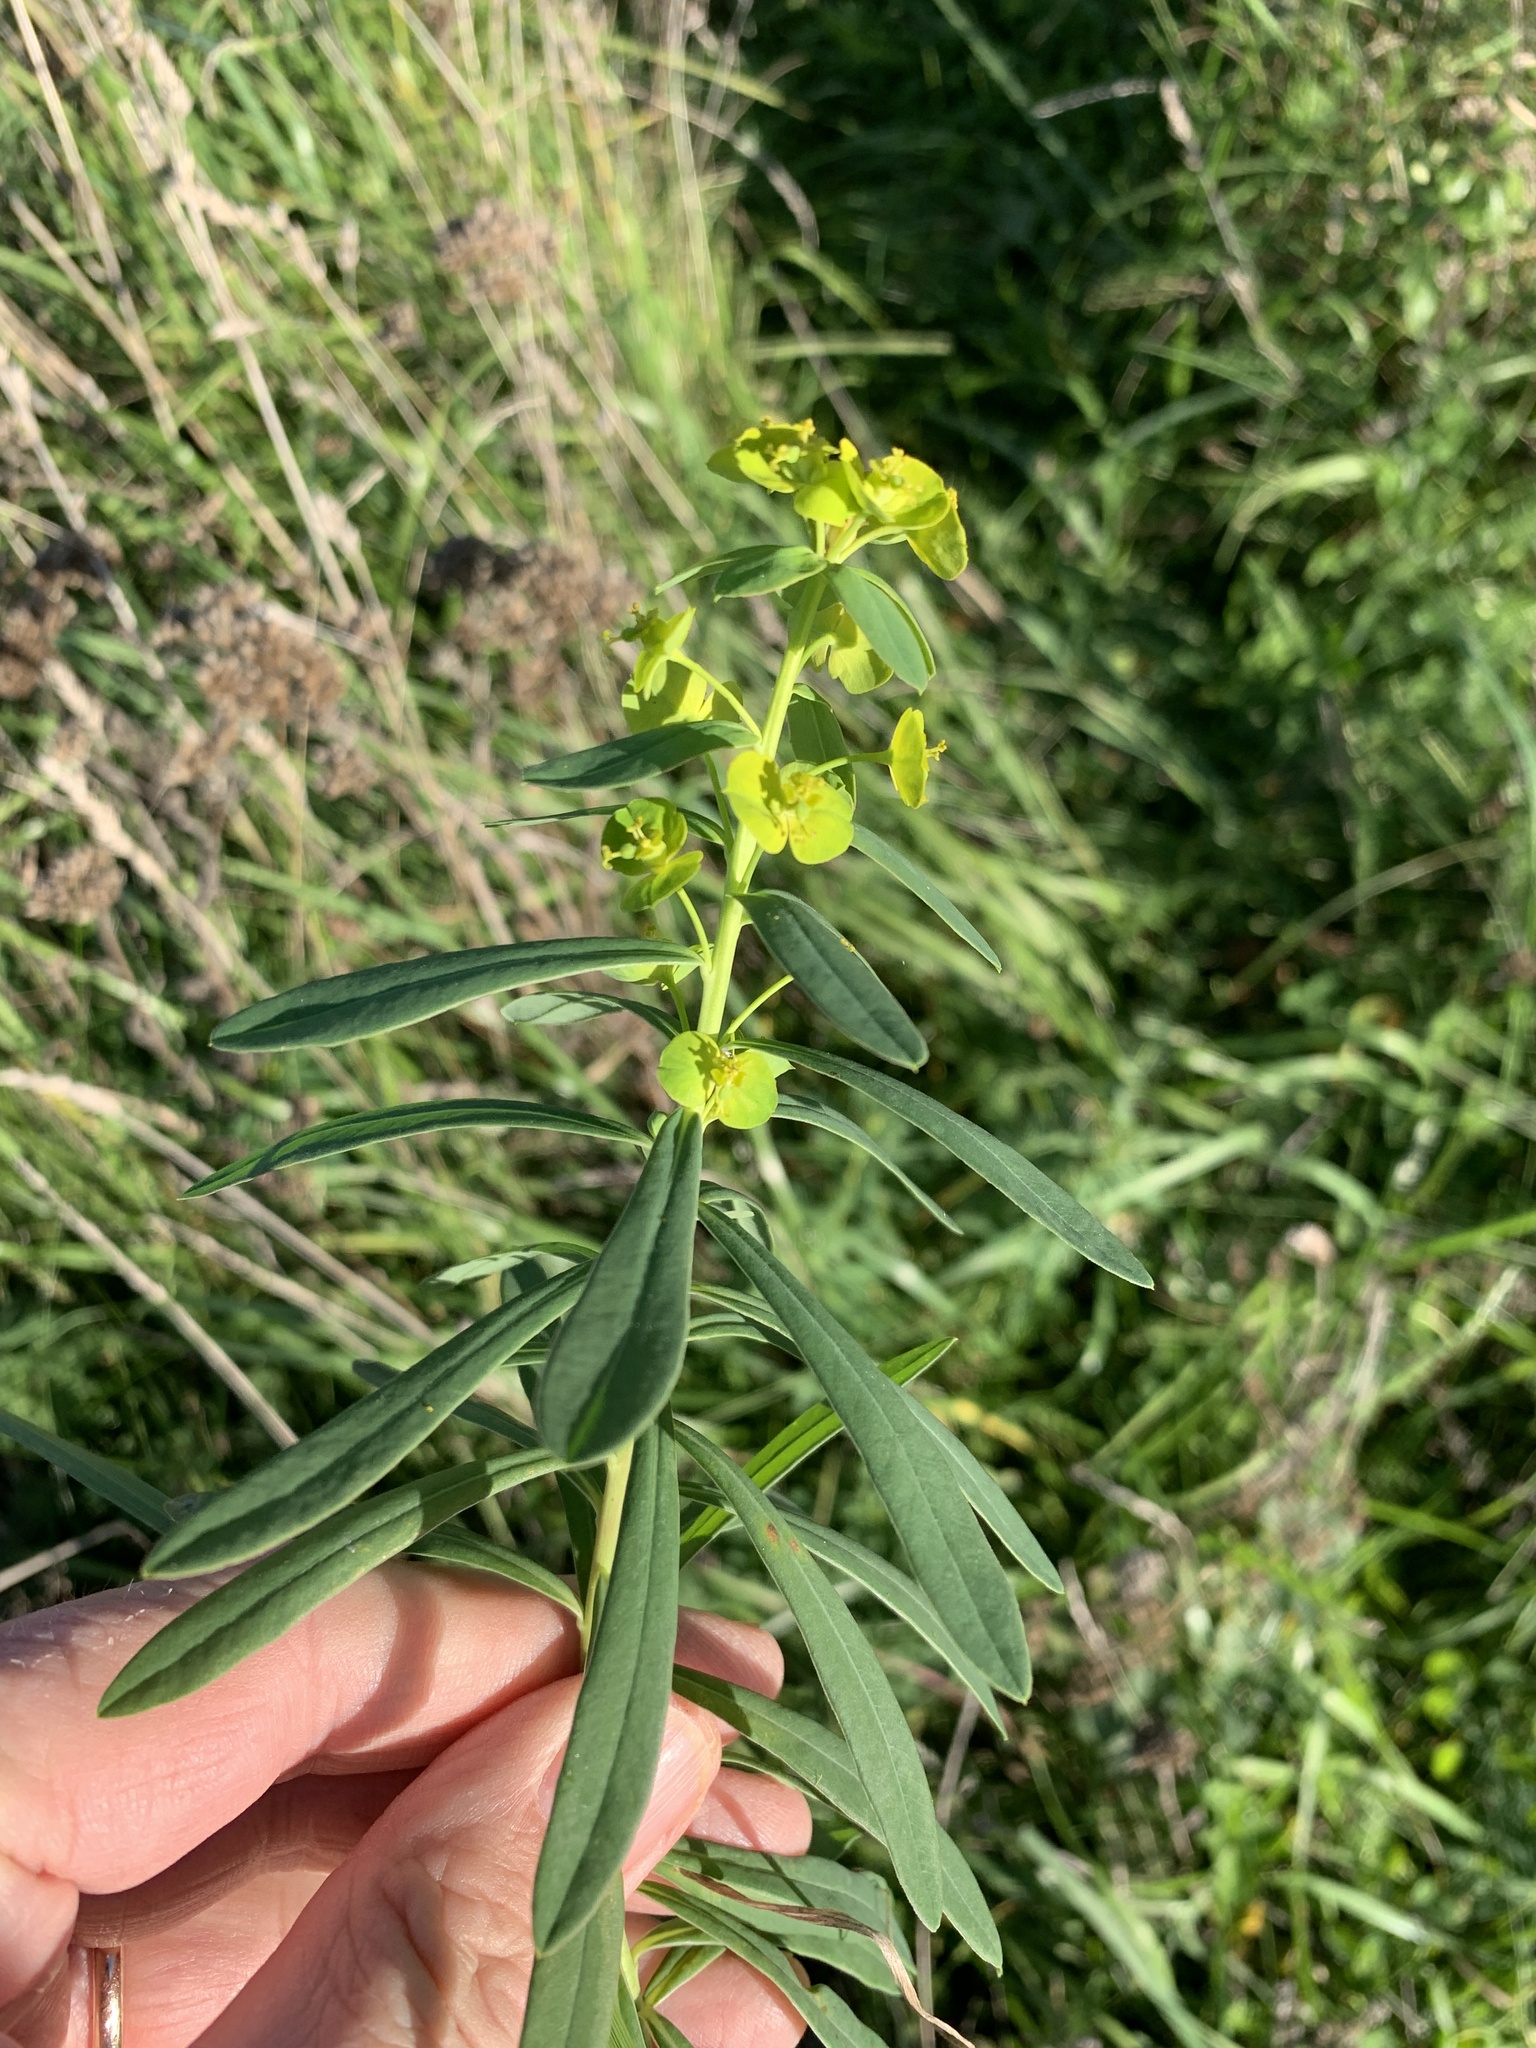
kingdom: Plantae
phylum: Tracheophyta
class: Magnoliopsida
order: Malpighiales
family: Euphorbiaceae
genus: Euphorbia
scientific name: Euphorbia esula
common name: Leafy spurge
